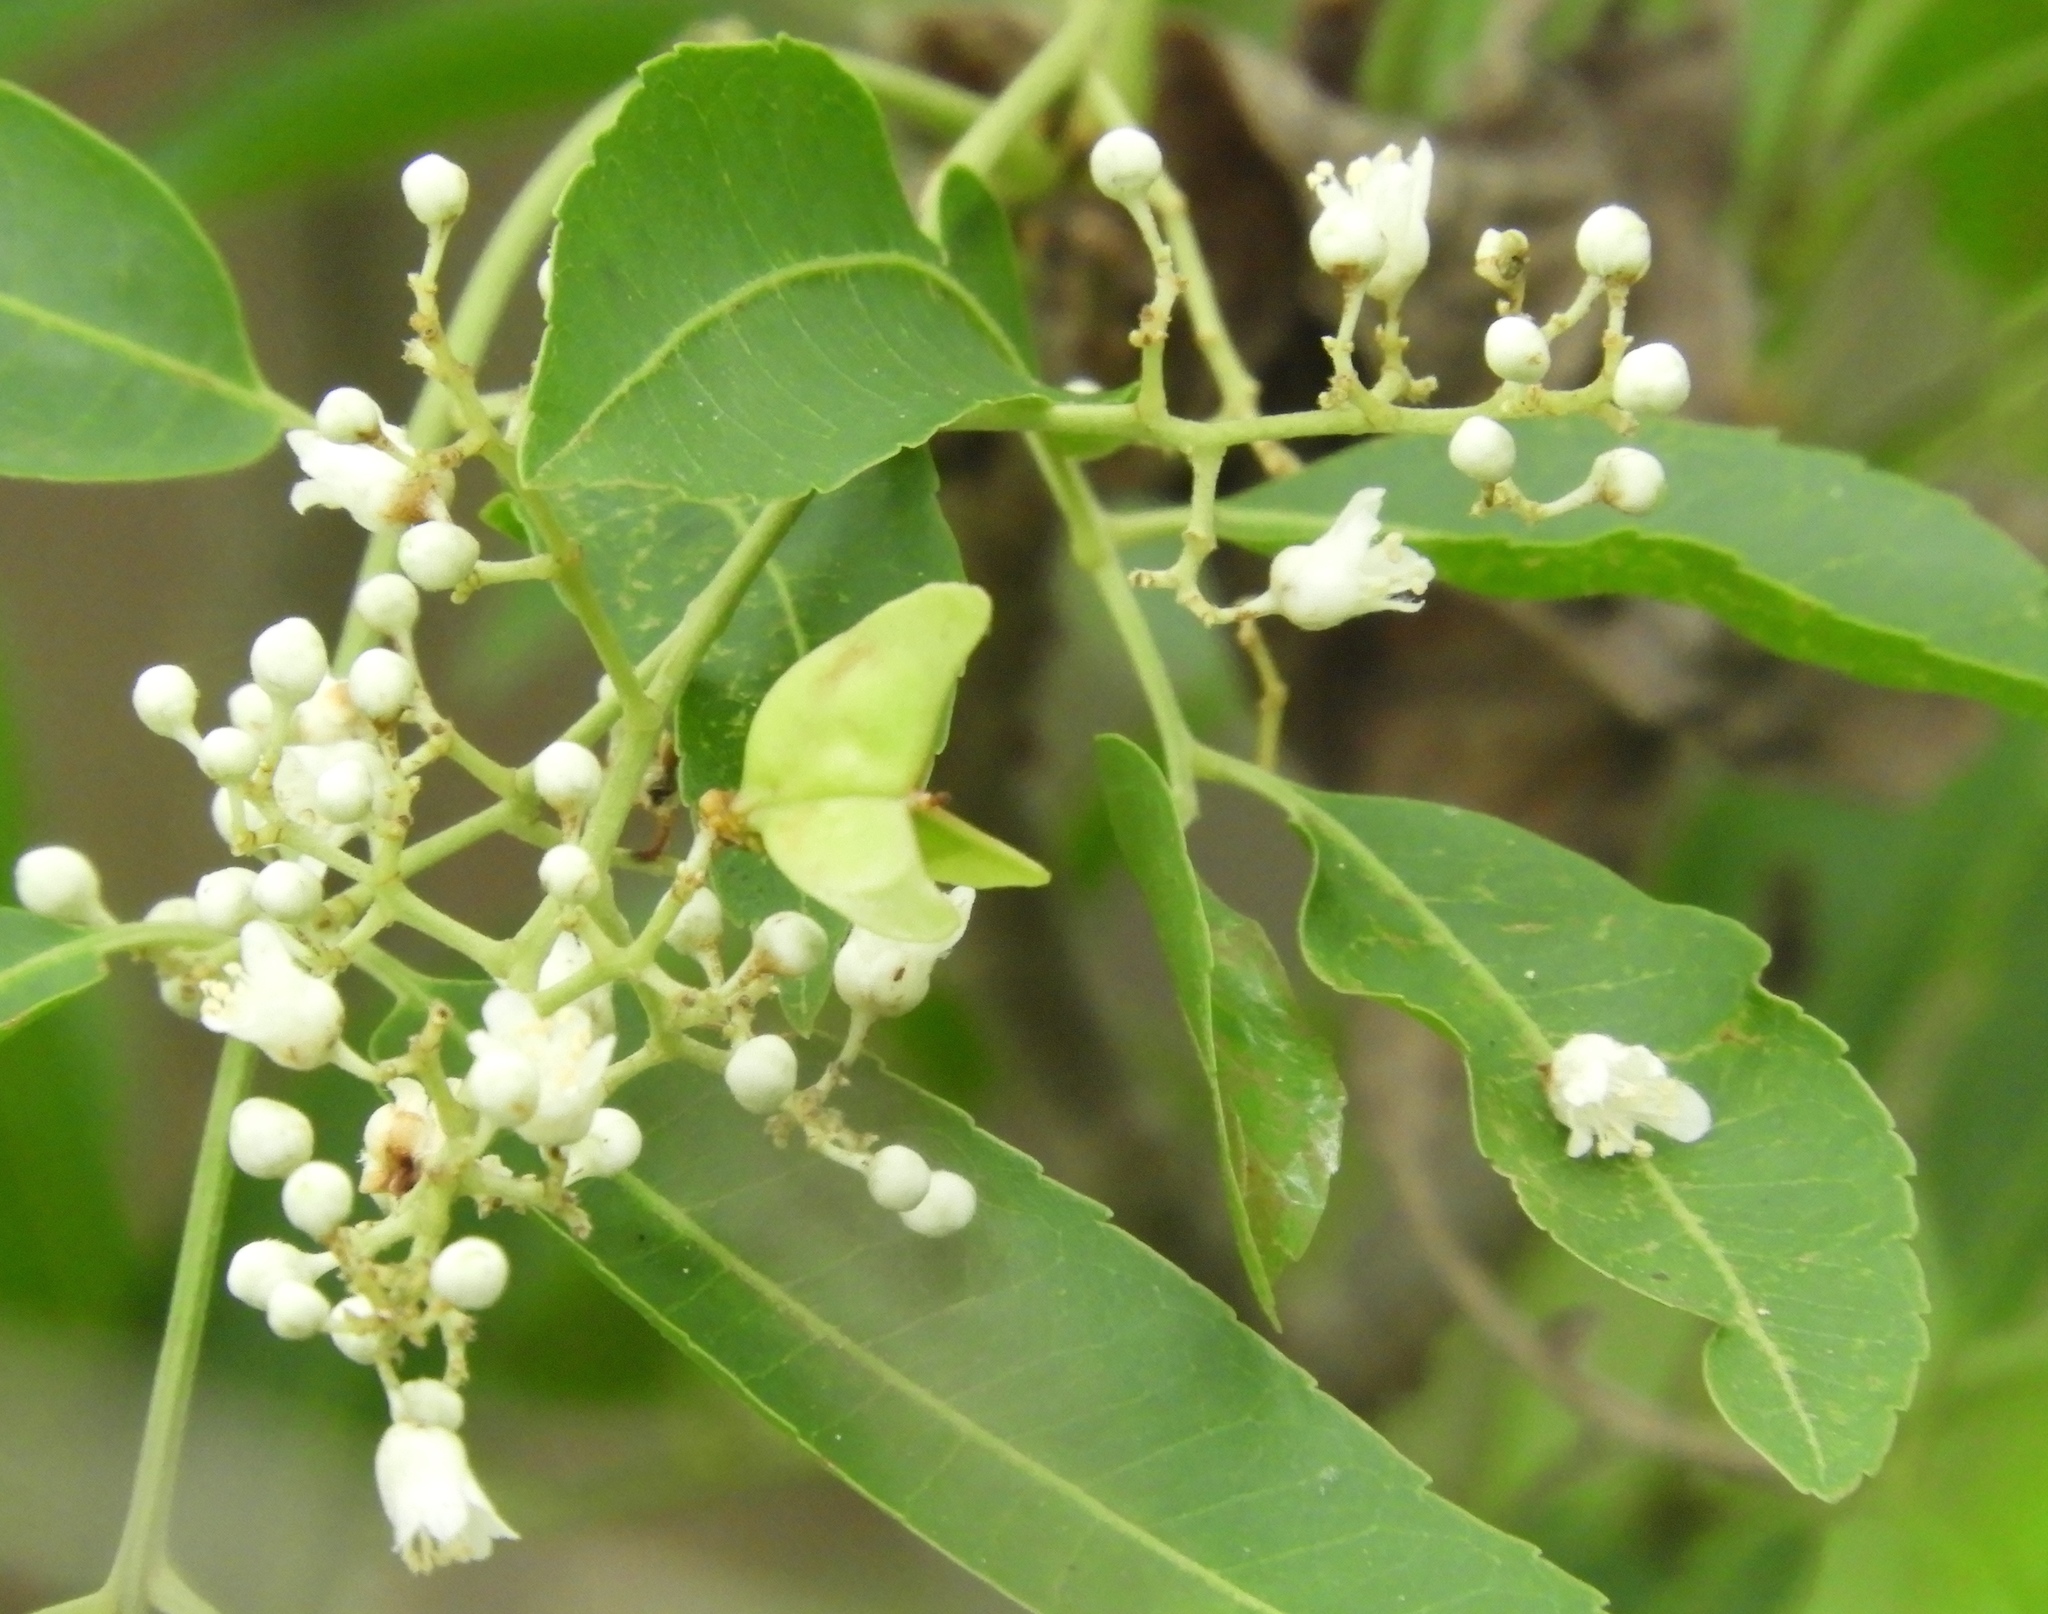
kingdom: Plantae
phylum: Tracheophyta
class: Magnoliopsida
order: Sapindales
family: Sapindaceae
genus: Thouinidium
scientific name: Thouinidium decandrum
